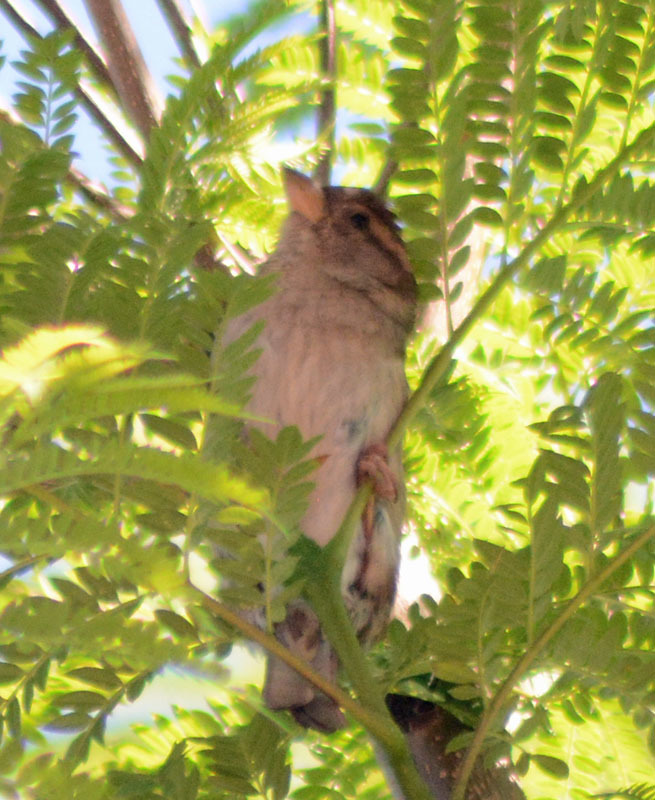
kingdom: Animalia
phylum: Chordata
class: Aves
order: Passeriformes
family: Passeridae
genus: Passer
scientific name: Passer domesticus
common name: House sparrow
